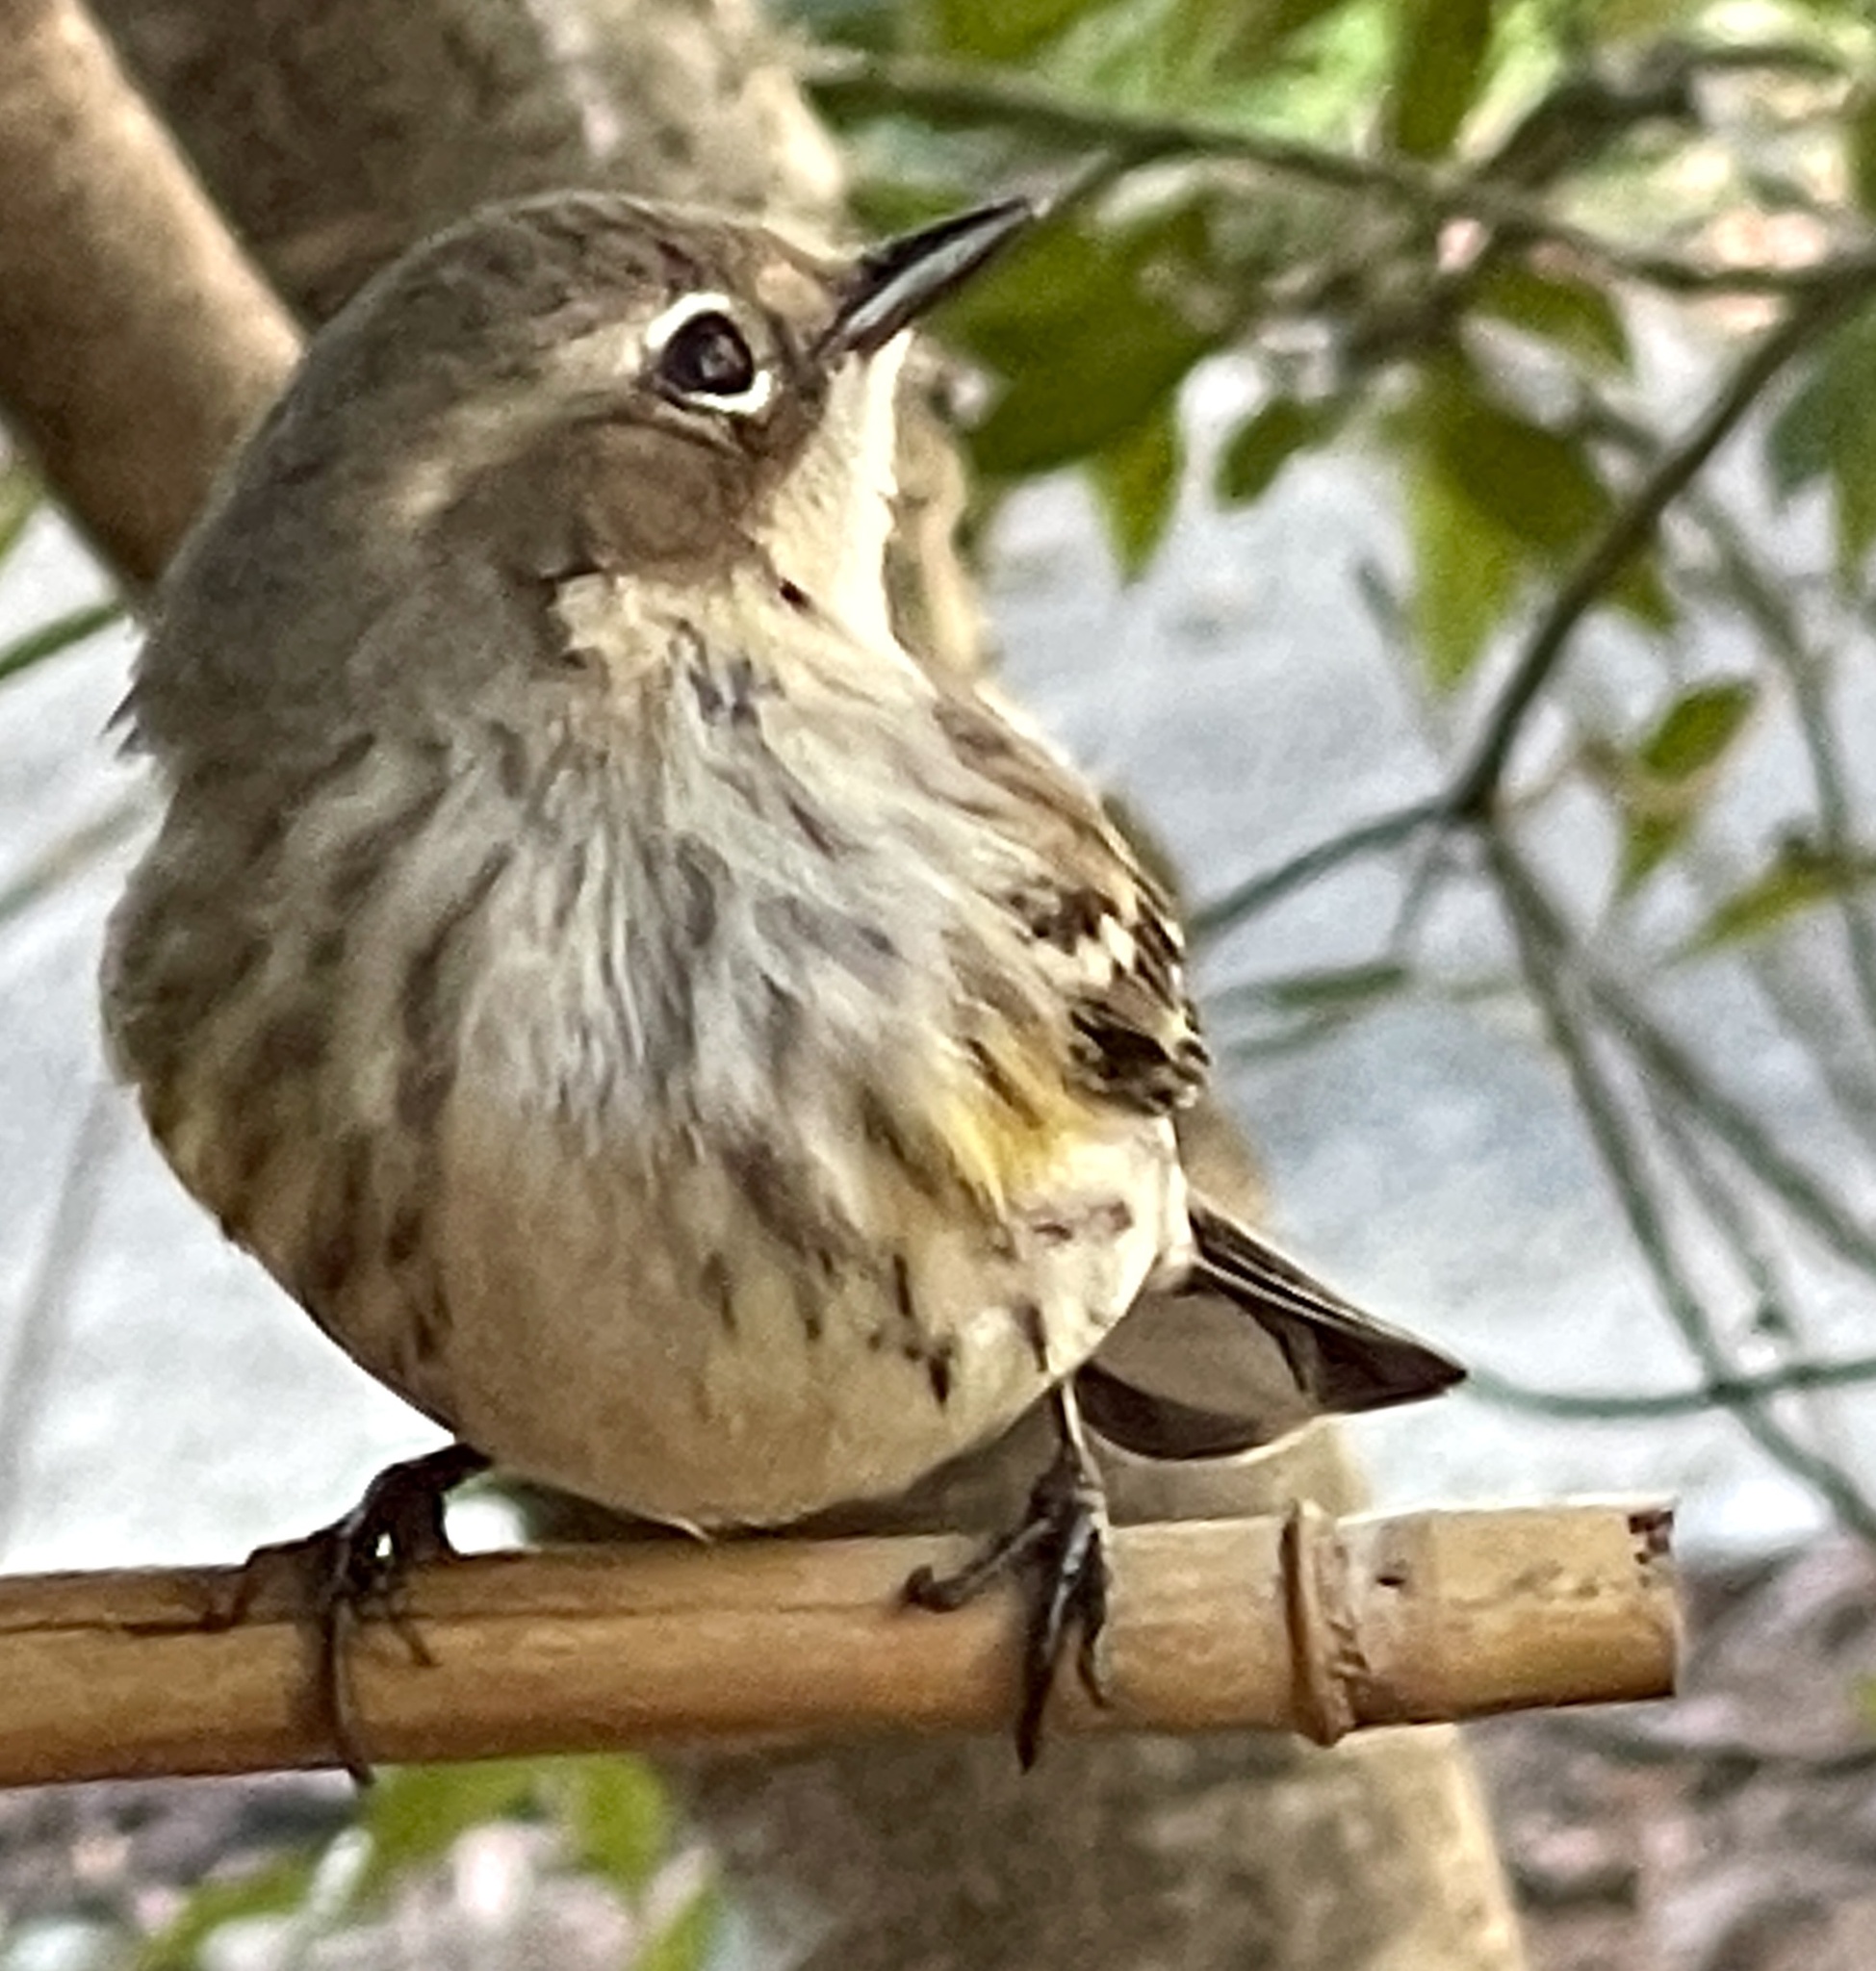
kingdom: Animalia
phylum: Chordata
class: Aves
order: Passeriformes
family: Parulidae
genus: Setophaga
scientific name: Setophaga coronata
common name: Myrtle warbler
